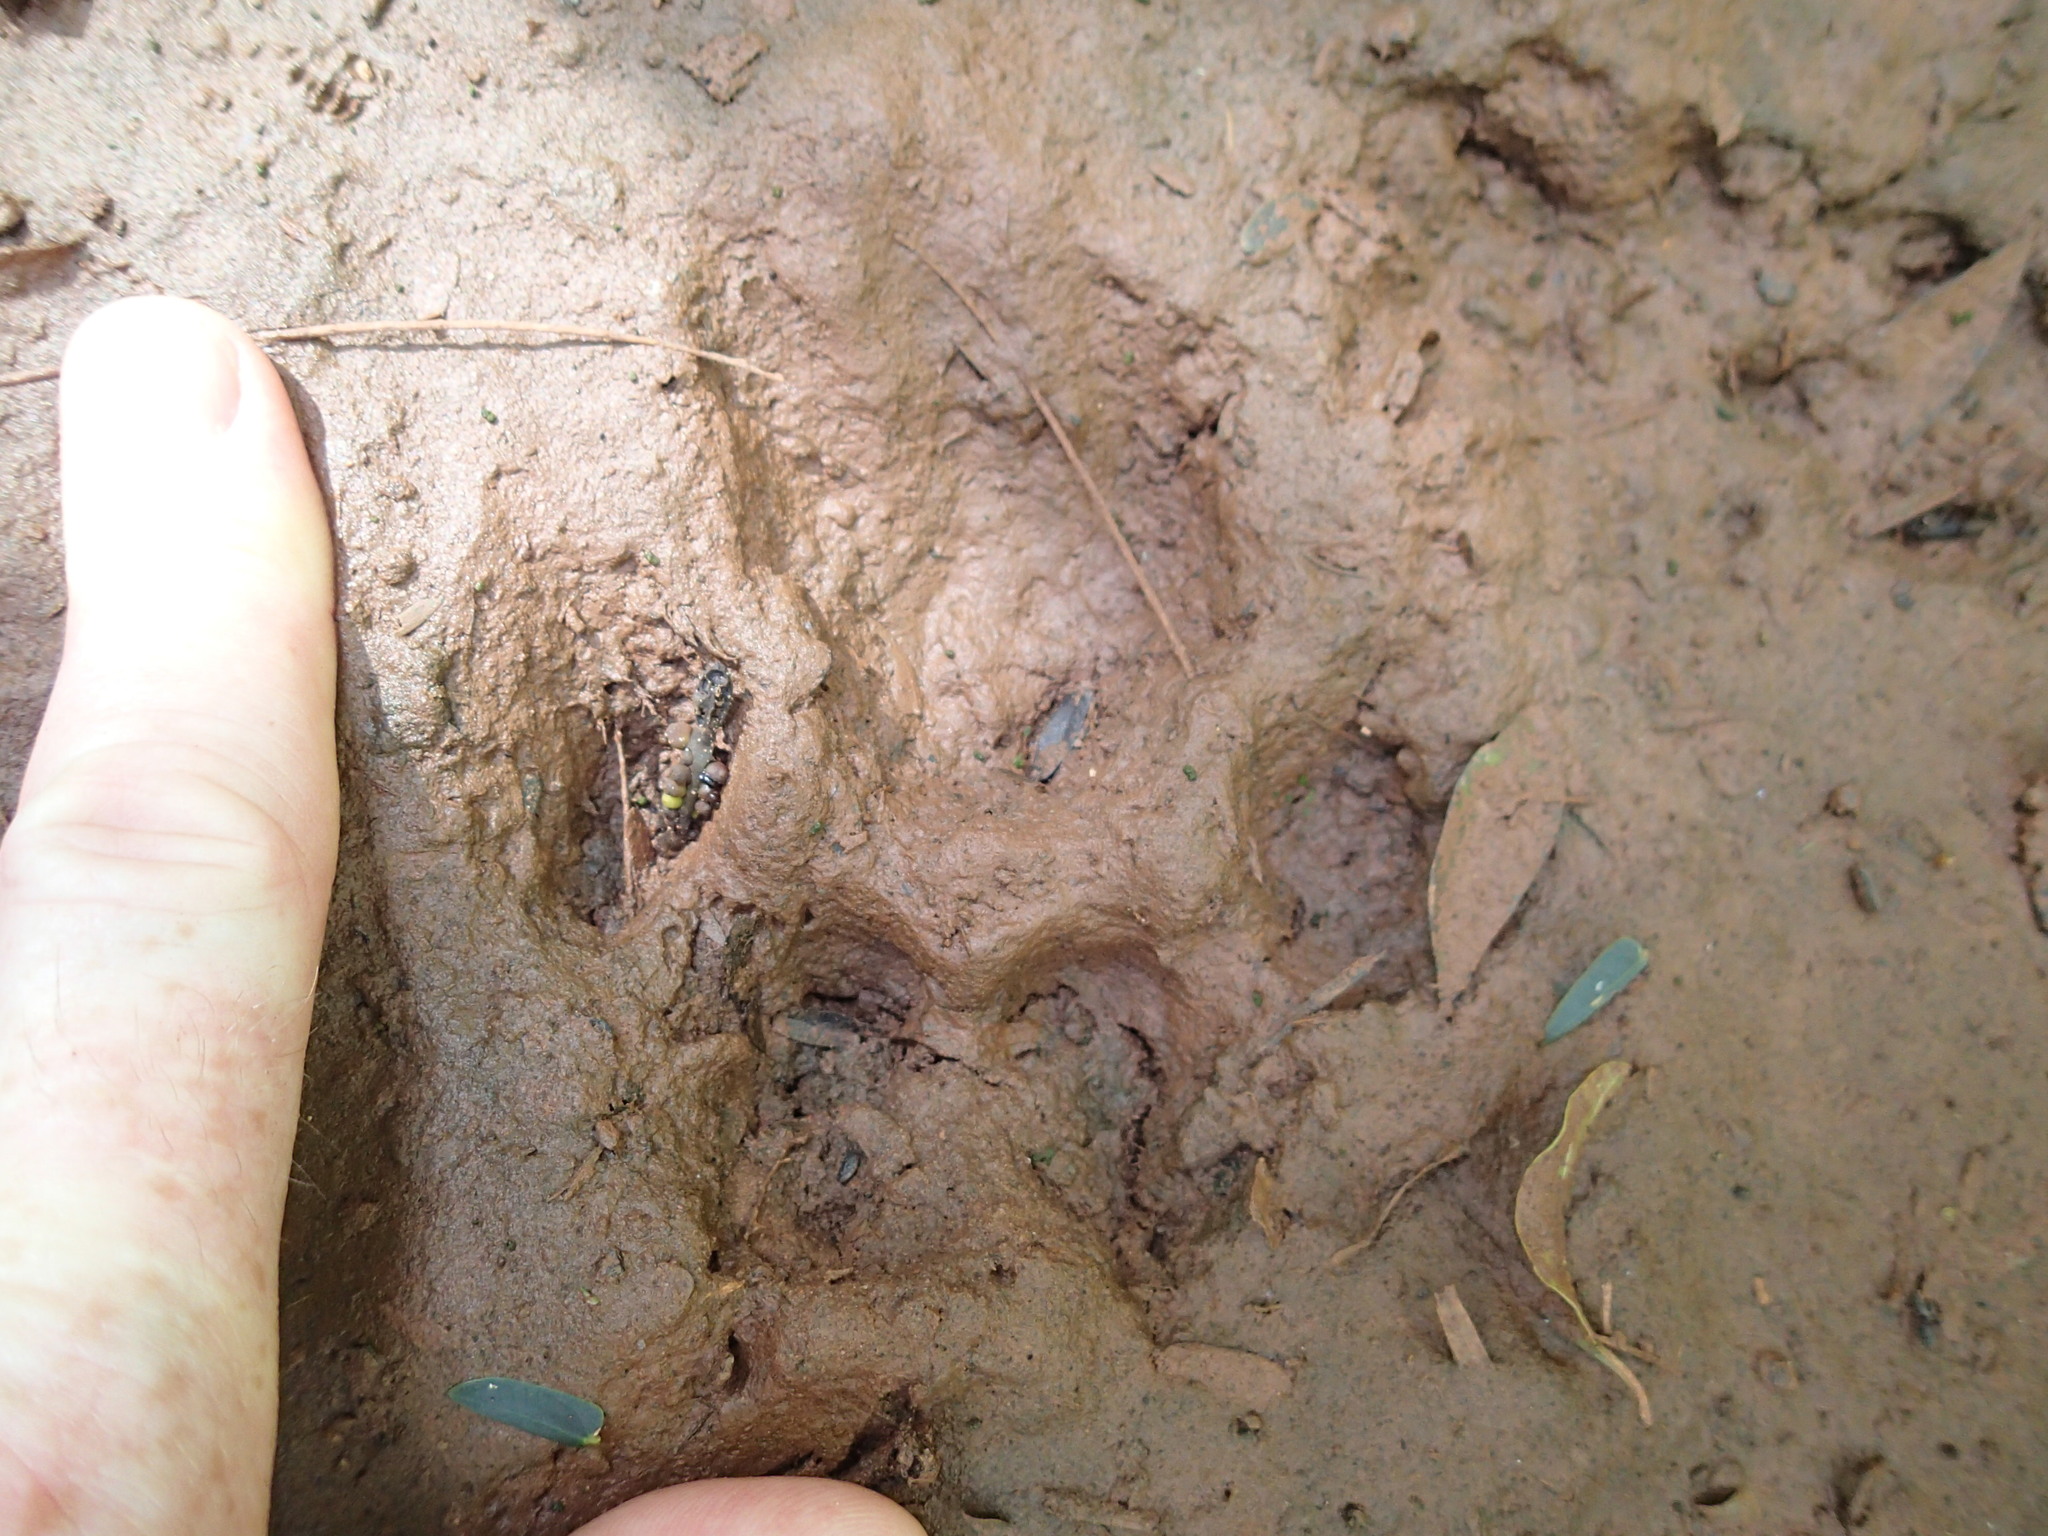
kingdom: Animalia
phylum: Chordata
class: Mammalia
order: Carnivora
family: Felidae
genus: Leopardus
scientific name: Leopardus pardalis
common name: Ocelot
